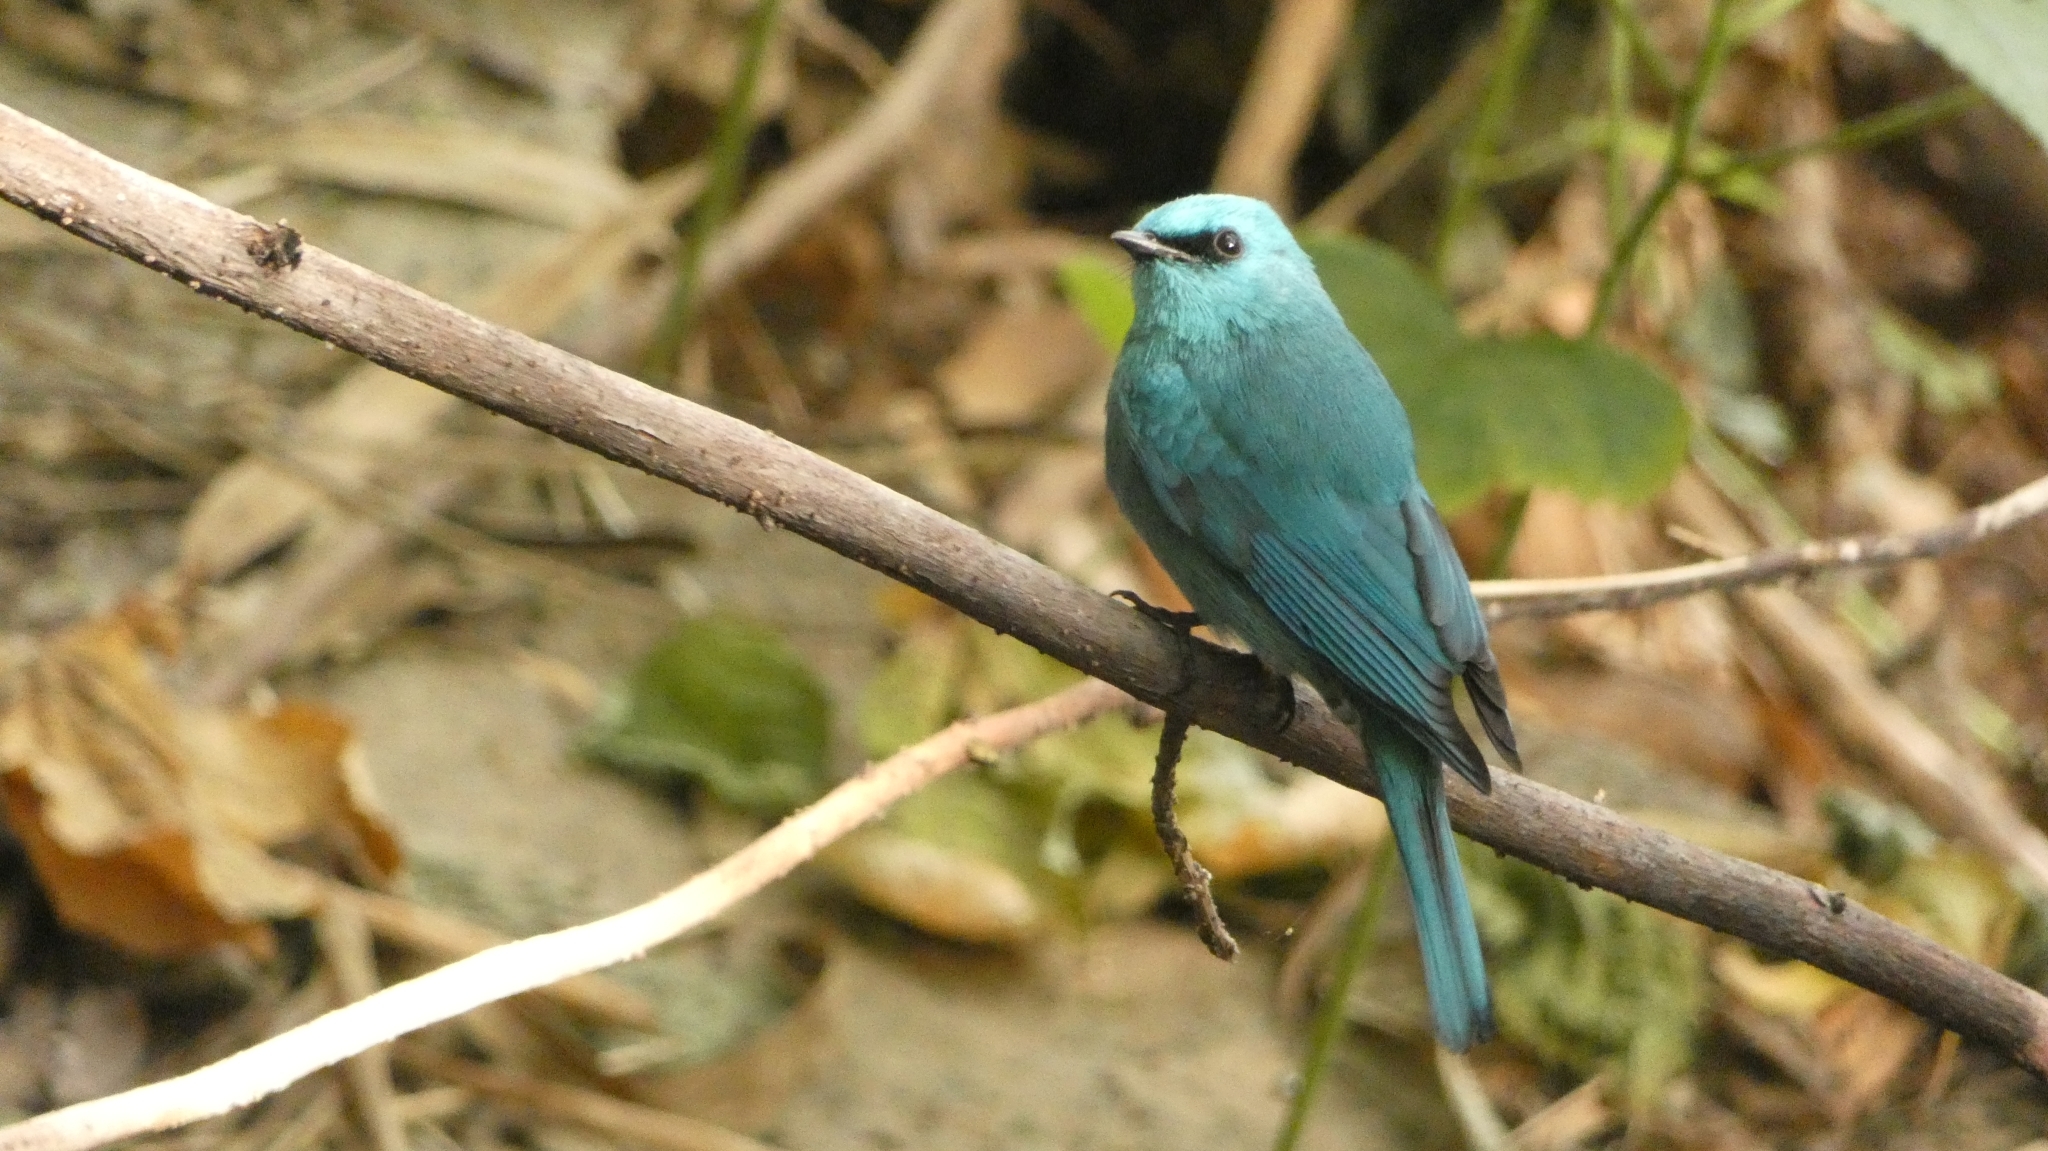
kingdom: Animalia
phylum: Chordata
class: Aves
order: Passeriformes
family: Muscicapidae
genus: Eumyias
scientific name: Eumyias thalassinus
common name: Verditer flycatcher
